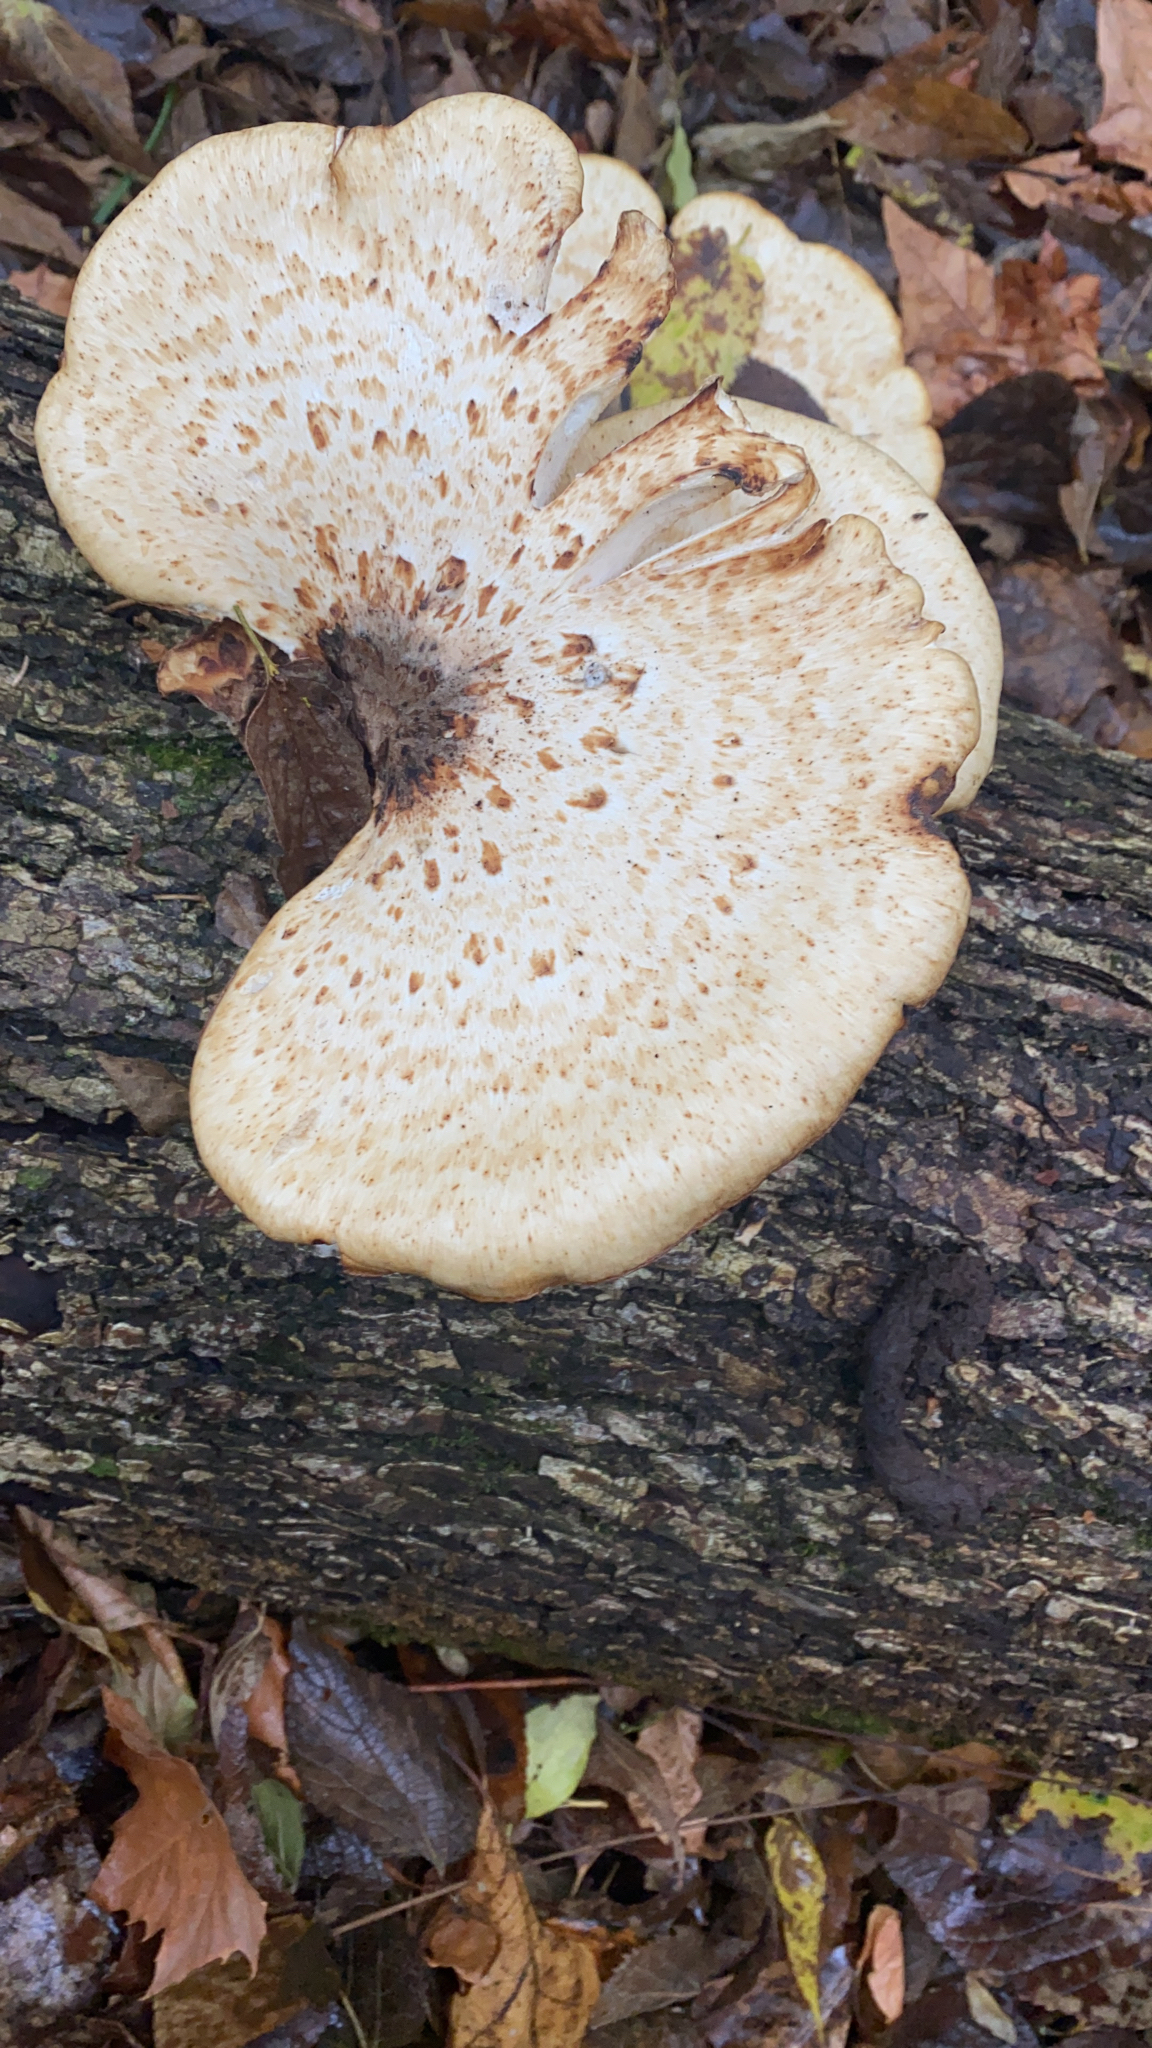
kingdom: Fungi
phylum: Basidiomycota
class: Agaricomycetes
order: Polyporales
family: Polyporaceae
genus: Cerioporus
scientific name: Cerioporus squamosus
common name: Dryad's saddle
